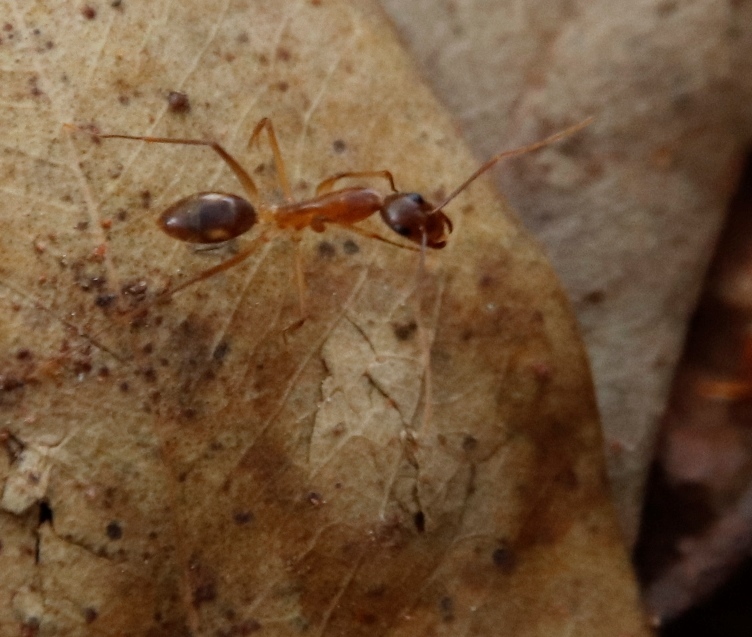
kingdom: Animalia
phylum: Arthropoda
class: Insecta
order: Hymenoptera
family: Formicidae
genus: Camponotus
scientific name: Camponotus maculatus
